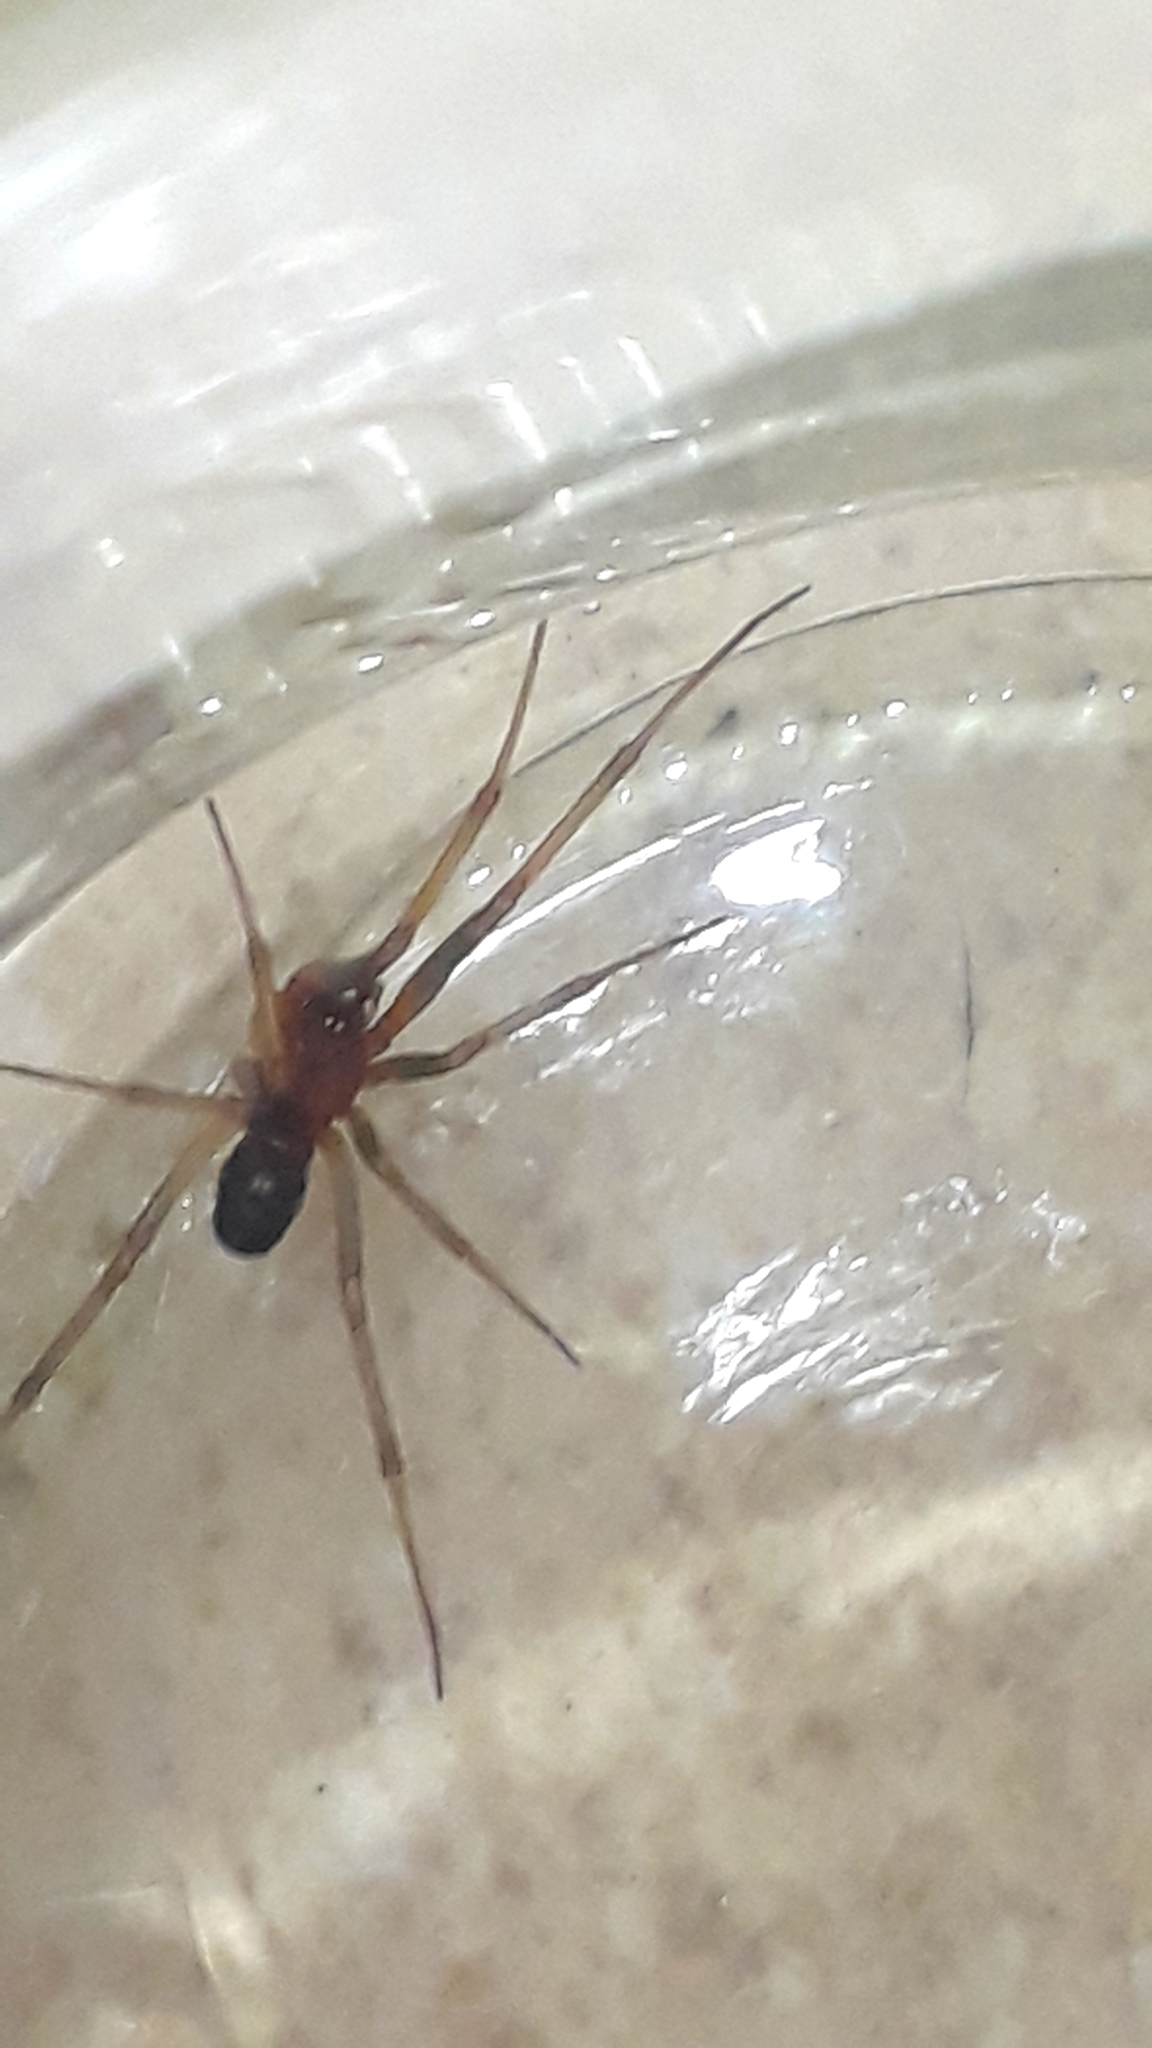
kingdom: Animalia
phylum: Arthropoda
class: Arachnida
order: Araneae
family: Theridiidae
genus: Steatoda
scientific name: Steatoda grossa
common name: False black widow
